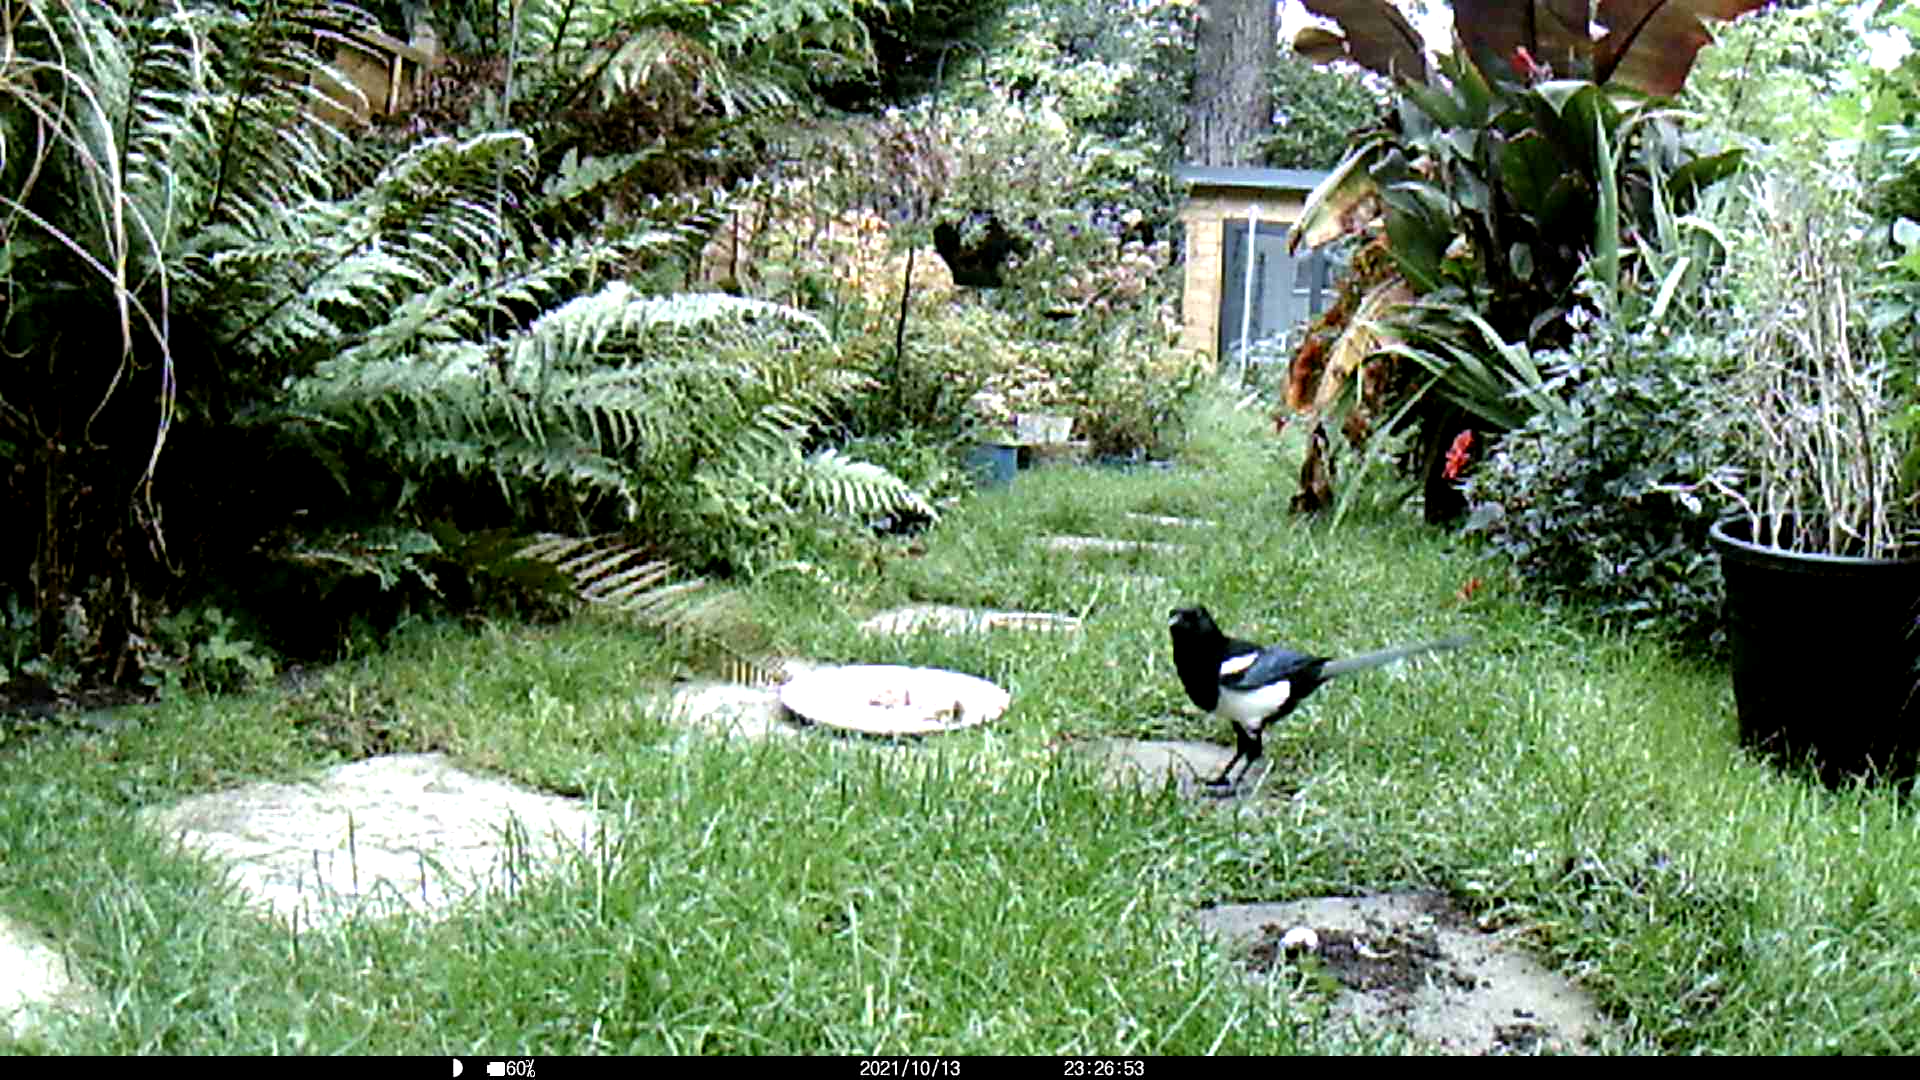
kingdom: Animalia
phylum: Chordata
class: Aves
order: Passeriformes
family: Corvidae
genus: Pica
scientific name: Pica pica
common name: Eurasian magpie
